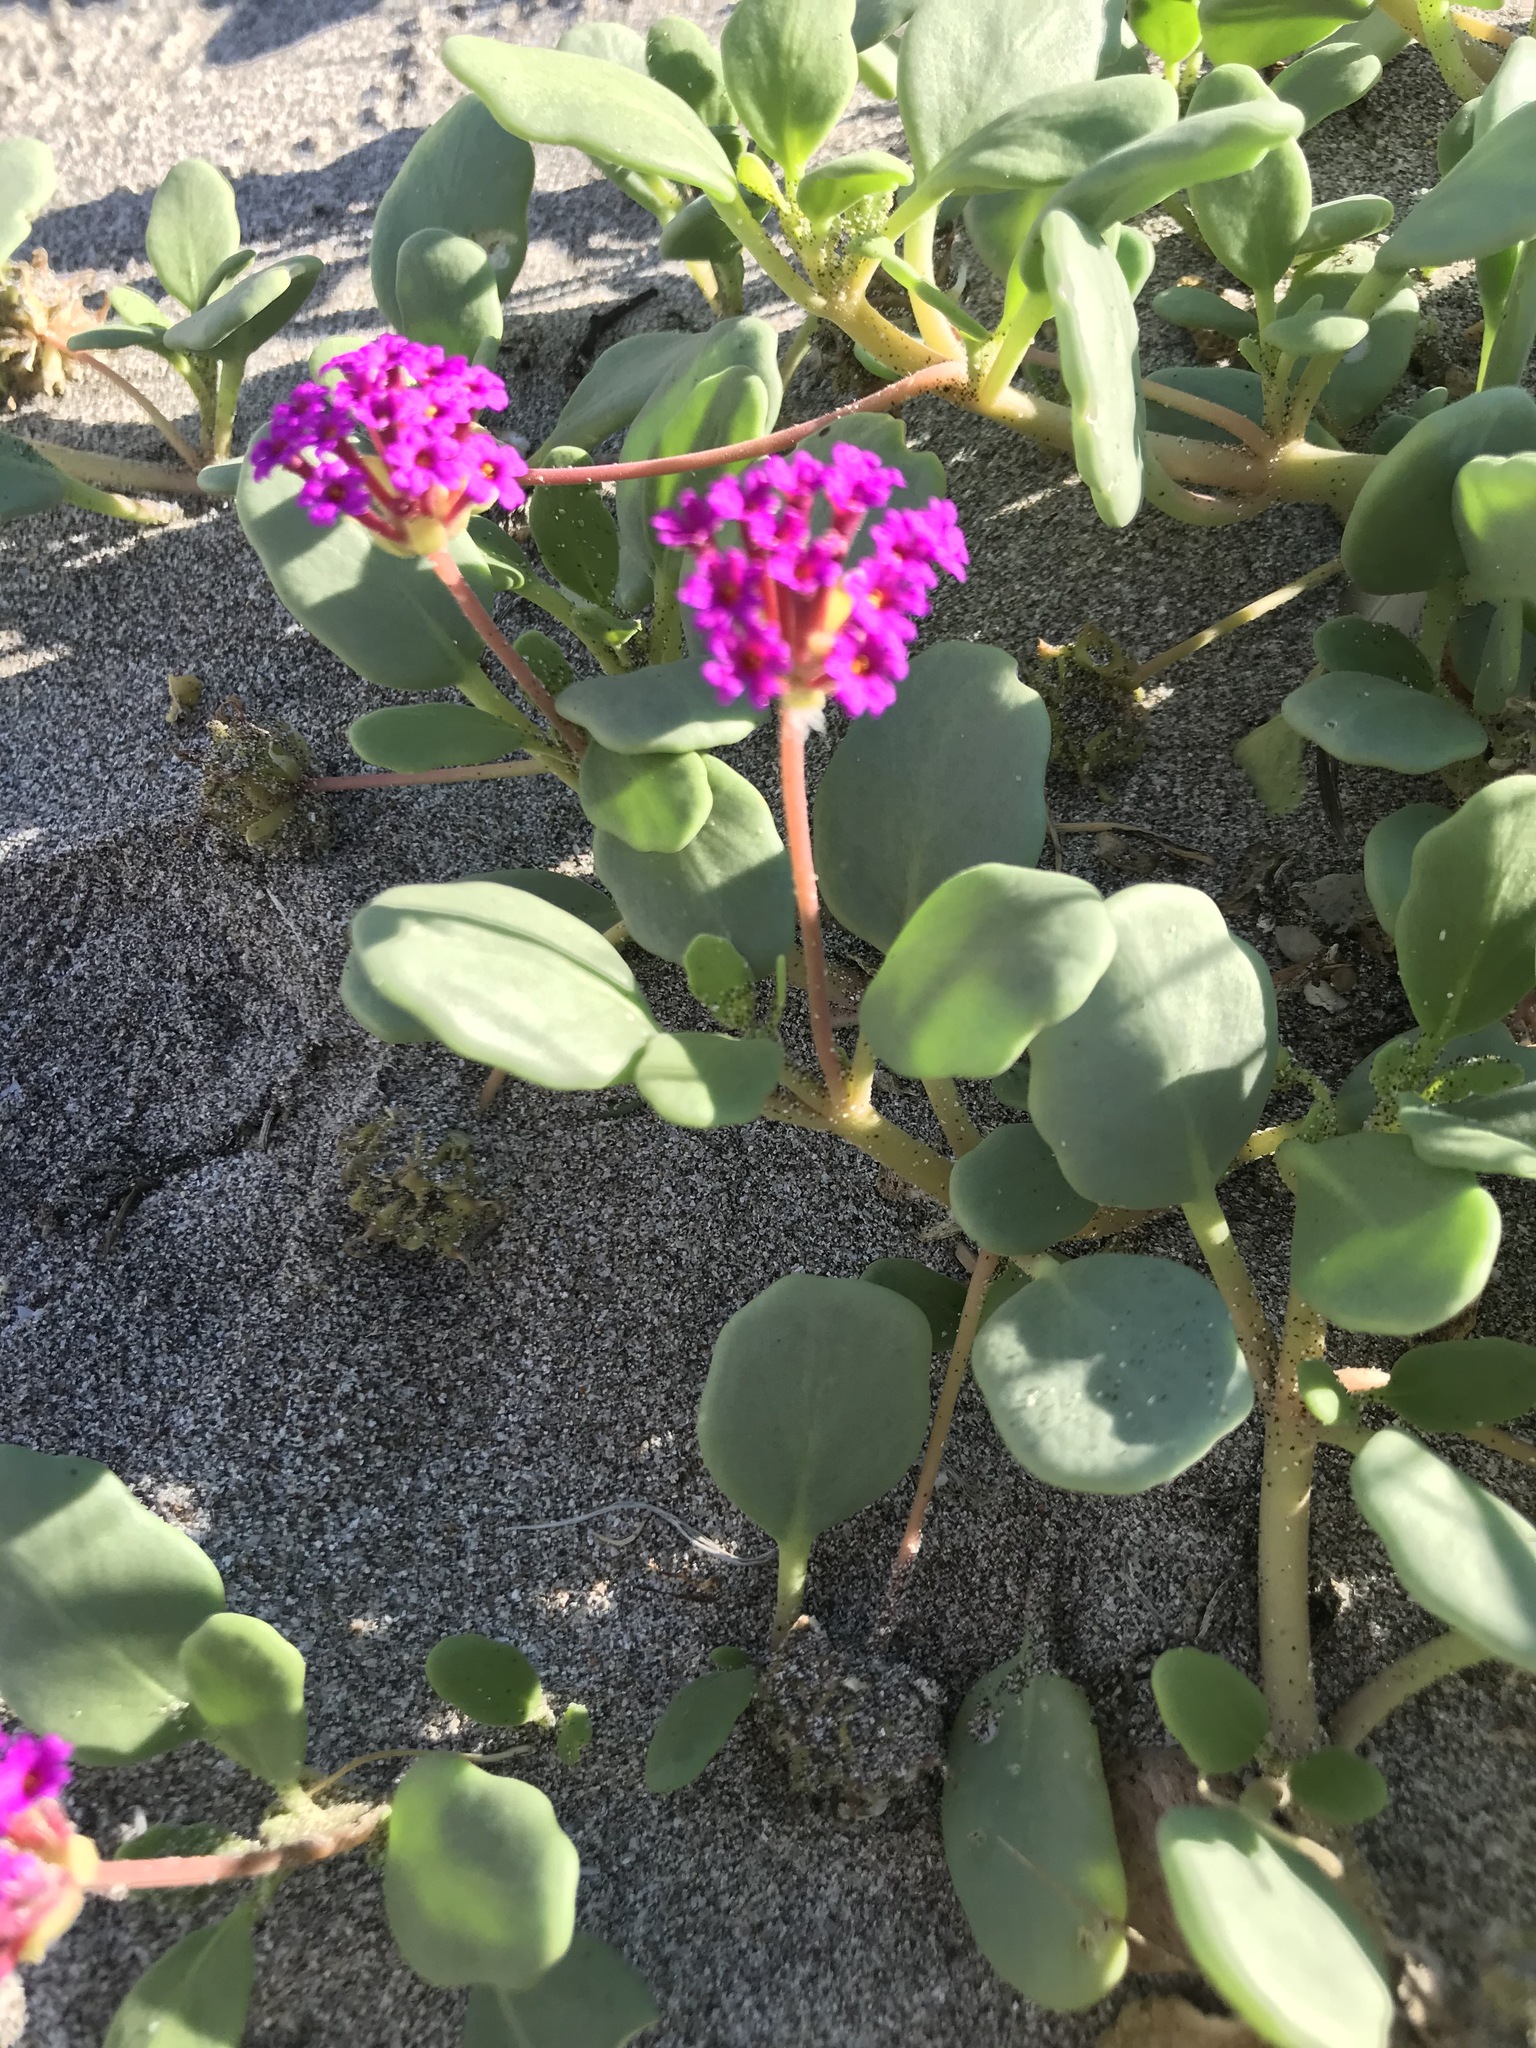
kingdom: Plantae
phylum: Tracheophyta
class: Magnoliopsida
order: Caryophyllales
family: Nyctaginaceae
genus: Abronia
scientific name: Abronia maritima
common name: Red sand-verbena
